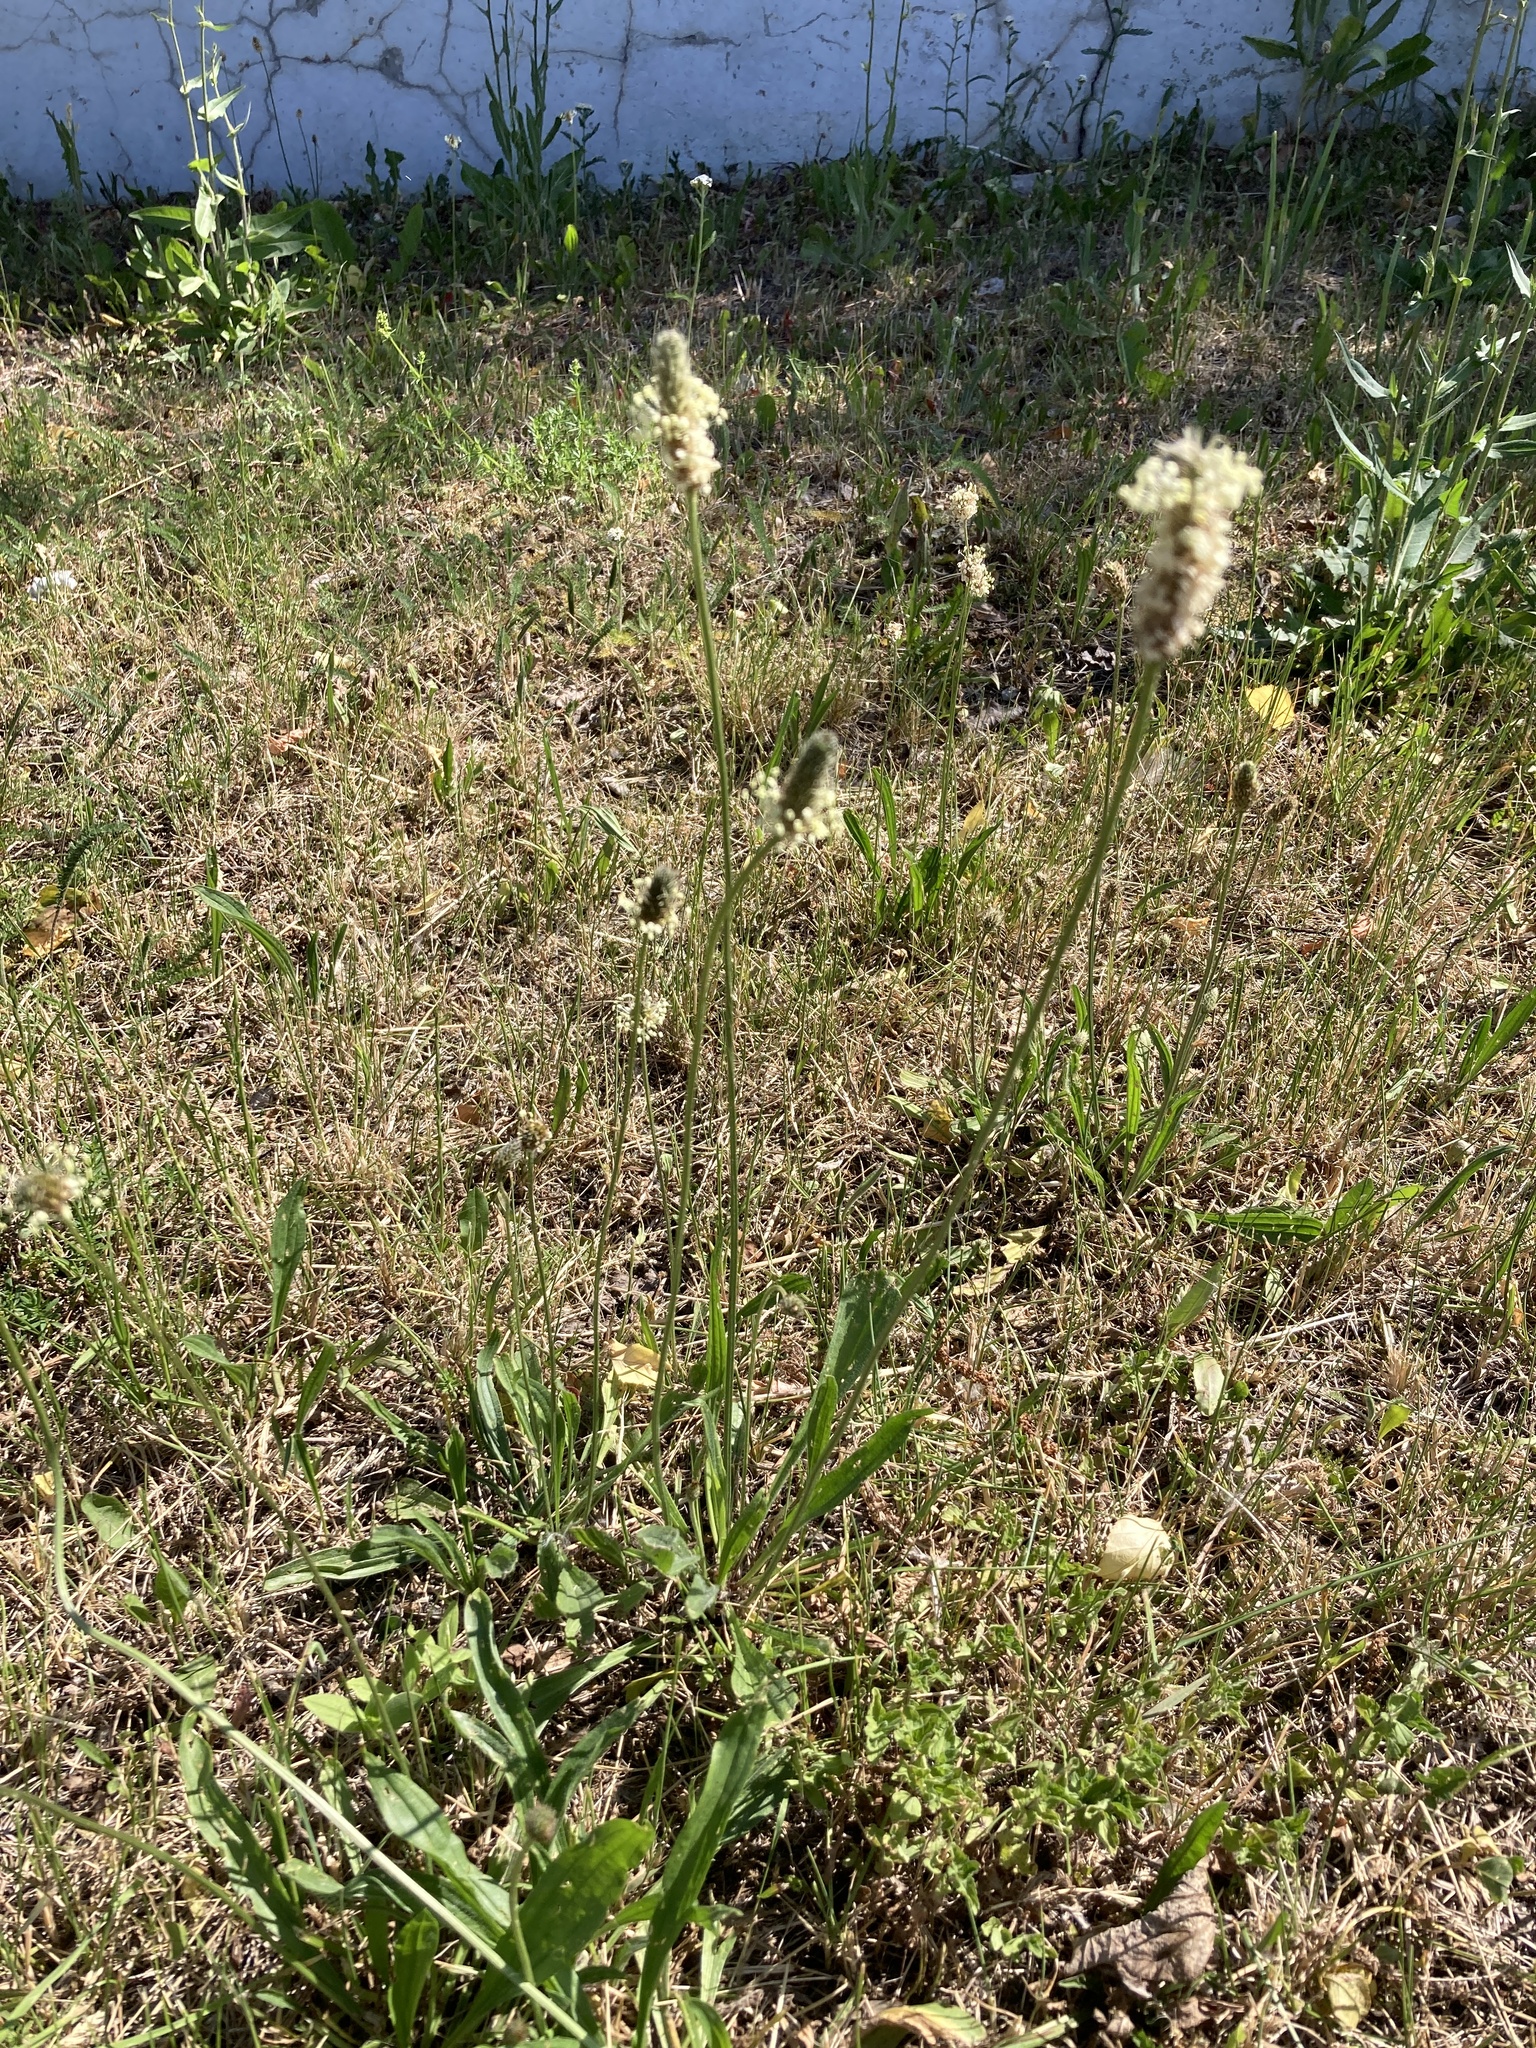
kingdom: Plantae
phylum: Tracheophyta
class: Magnoliopsida
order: Lamiales
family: Plantaginaceae
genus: Plantago
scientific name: Plantago lanceolata
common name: Ribwort plantain
